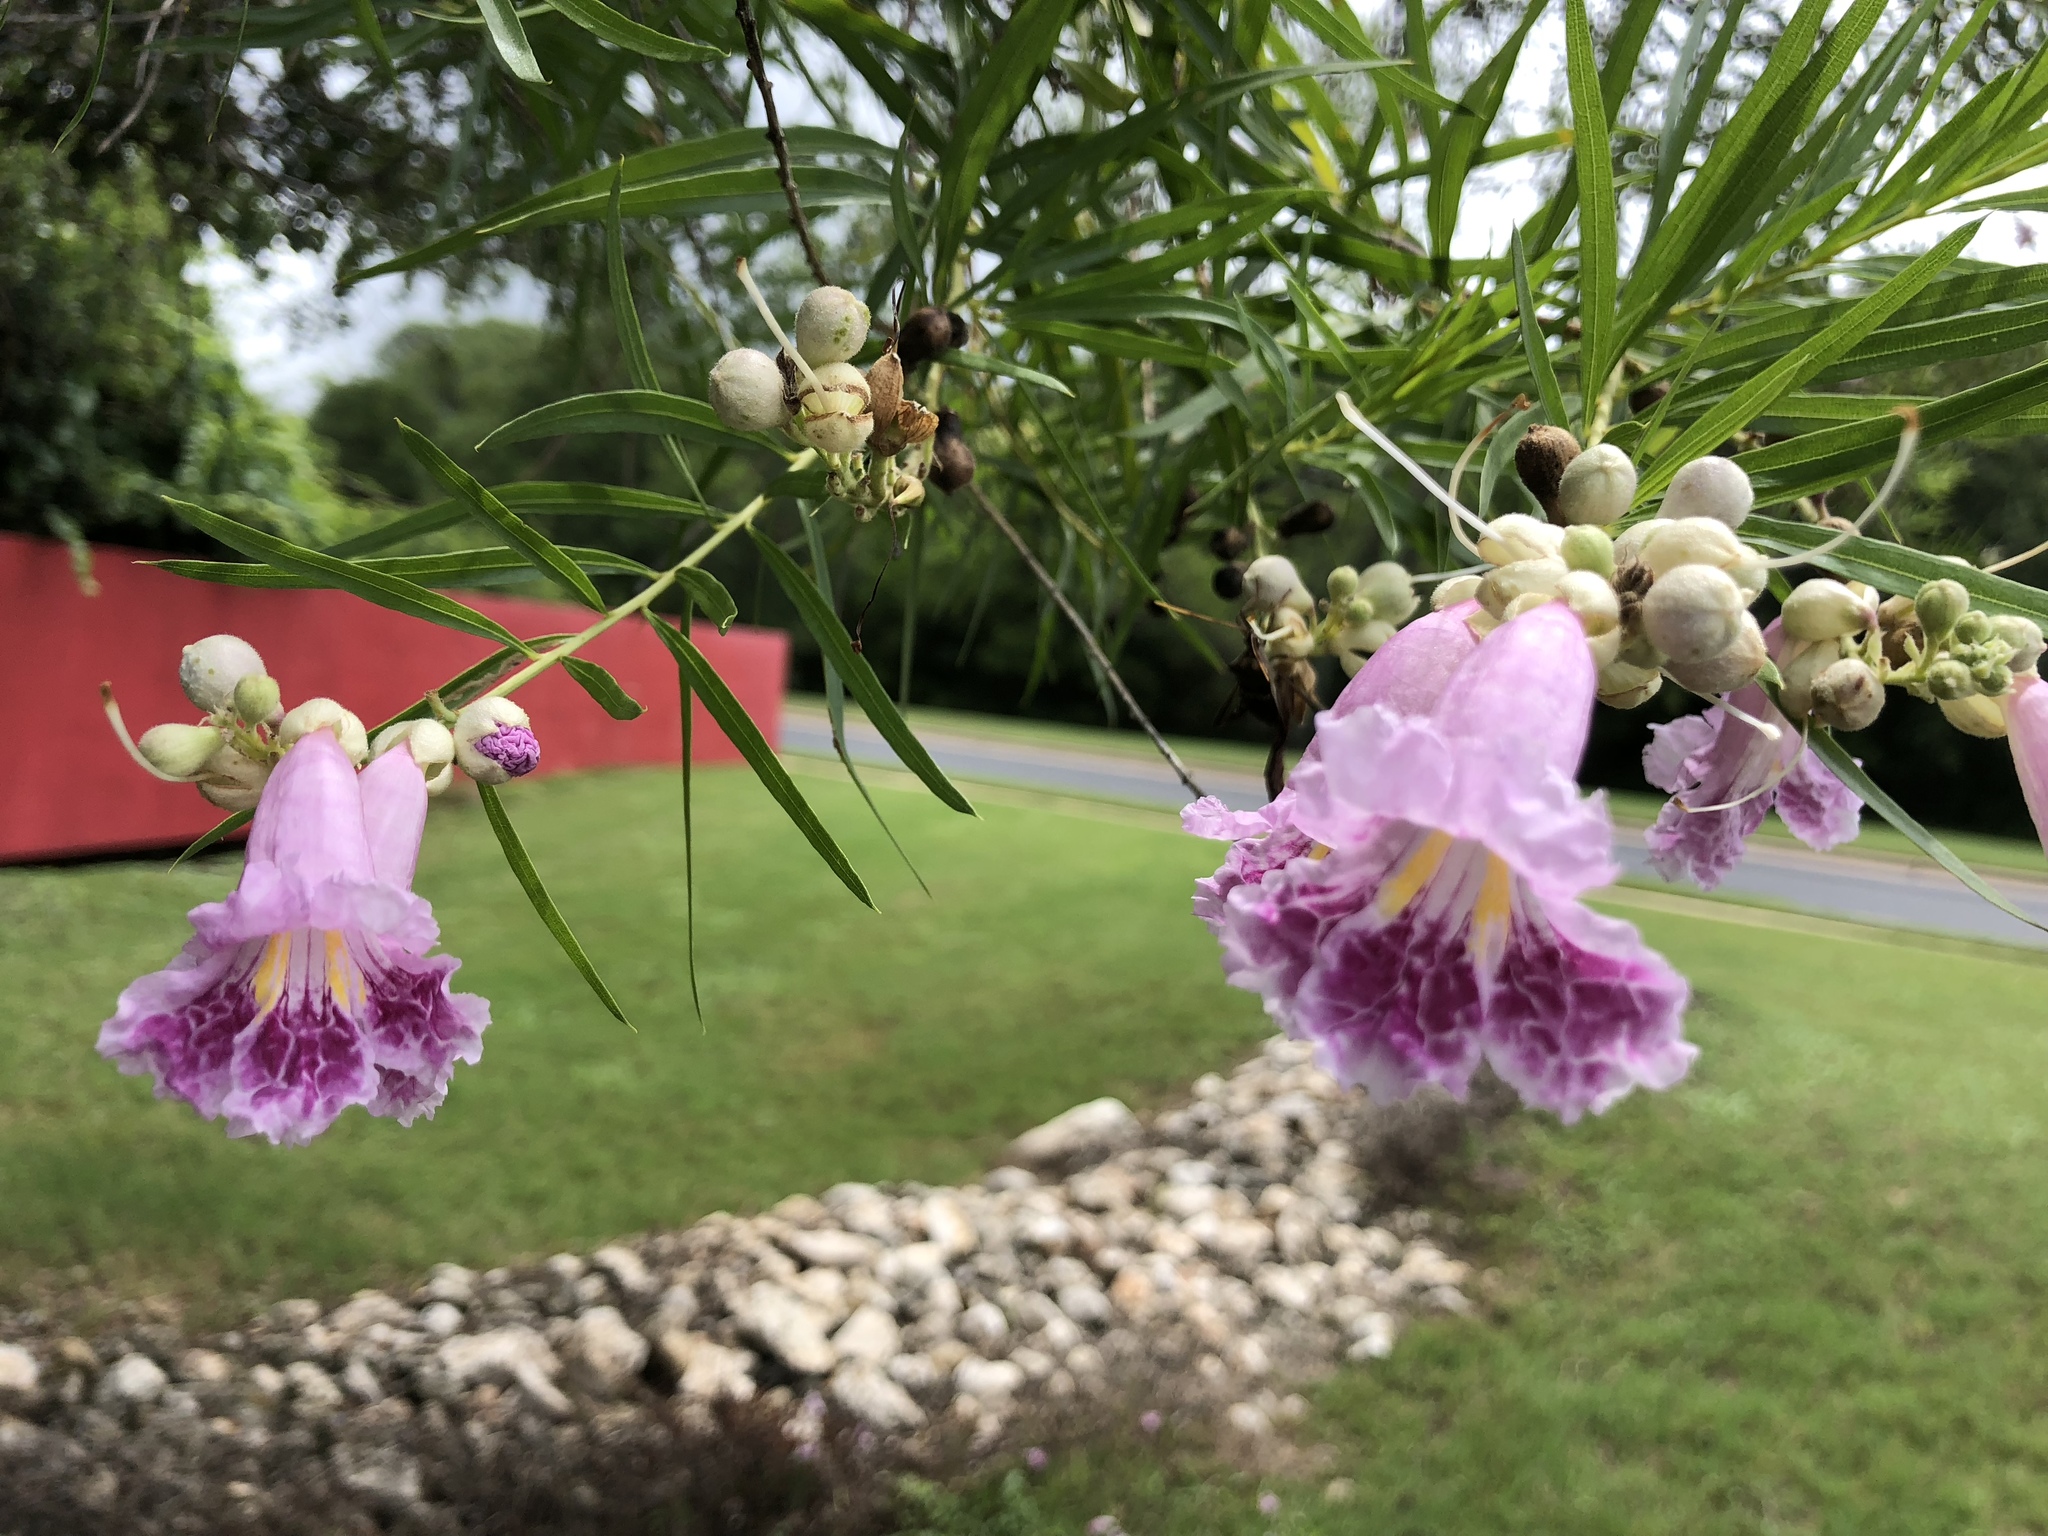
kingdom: Plantae
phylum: Tracheophyta
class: Magnoliopsida
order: Lamiales
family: Bignoniaceae
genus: Chilopsis
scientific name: Chilopsis linearis
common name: Desert-willow
